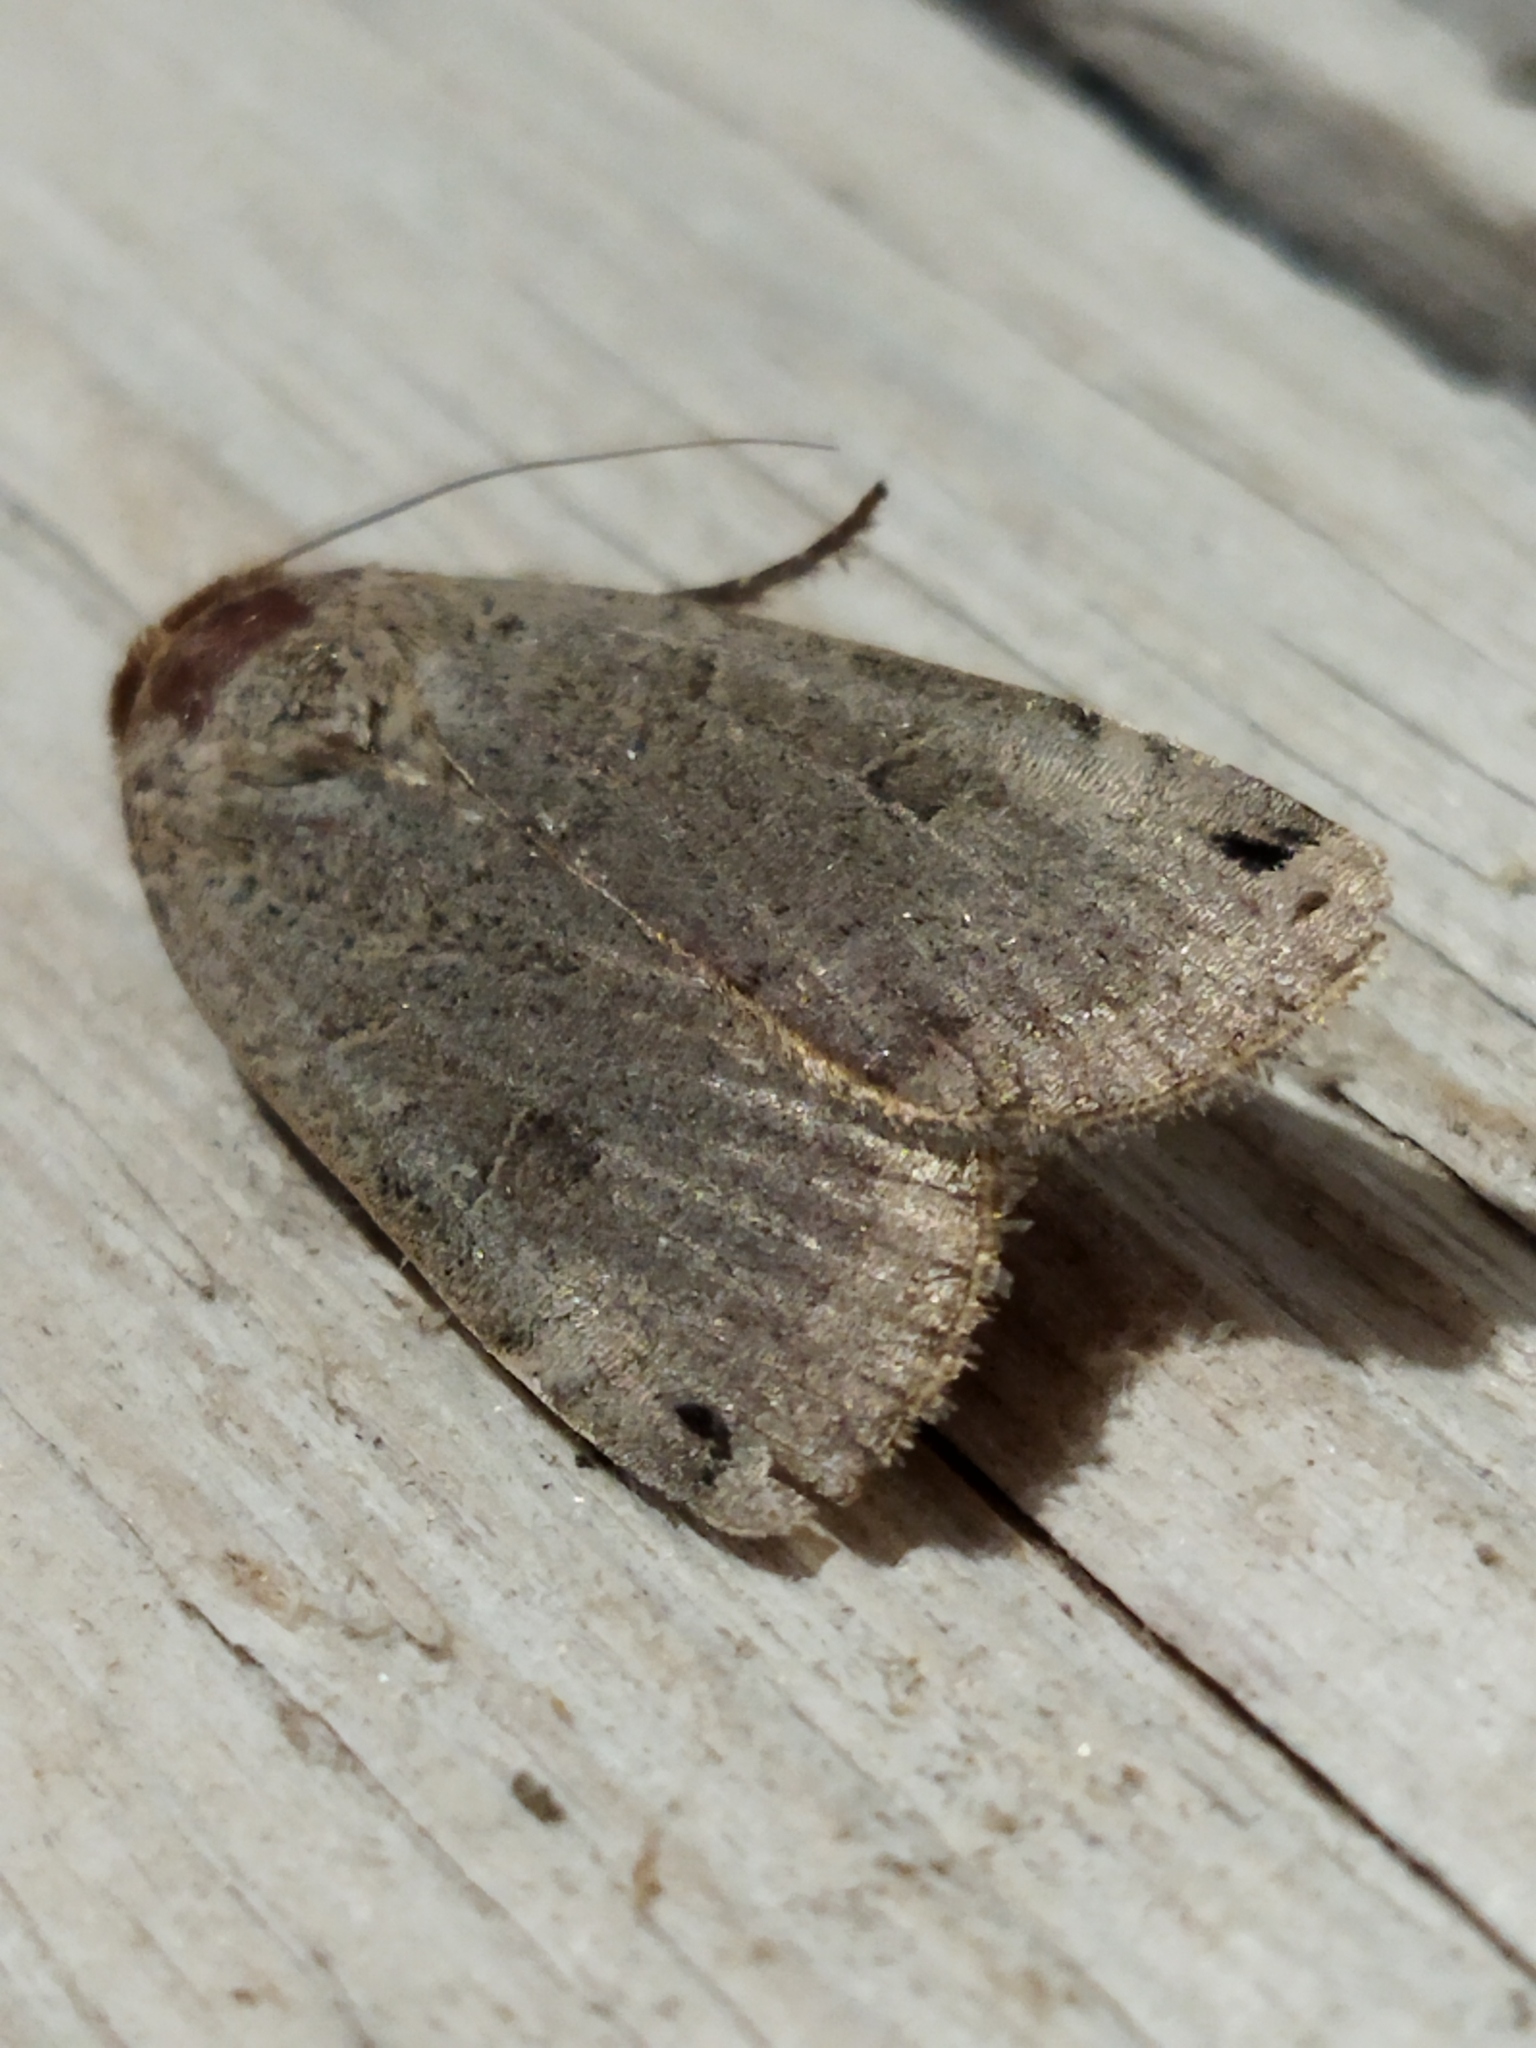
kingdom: Animalia
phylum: Arthropoda
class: Insecta
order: Lepidoptera
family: Noctuidae
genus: Noctua
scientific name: Noctua orbona
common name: Lunar yellow underwing
